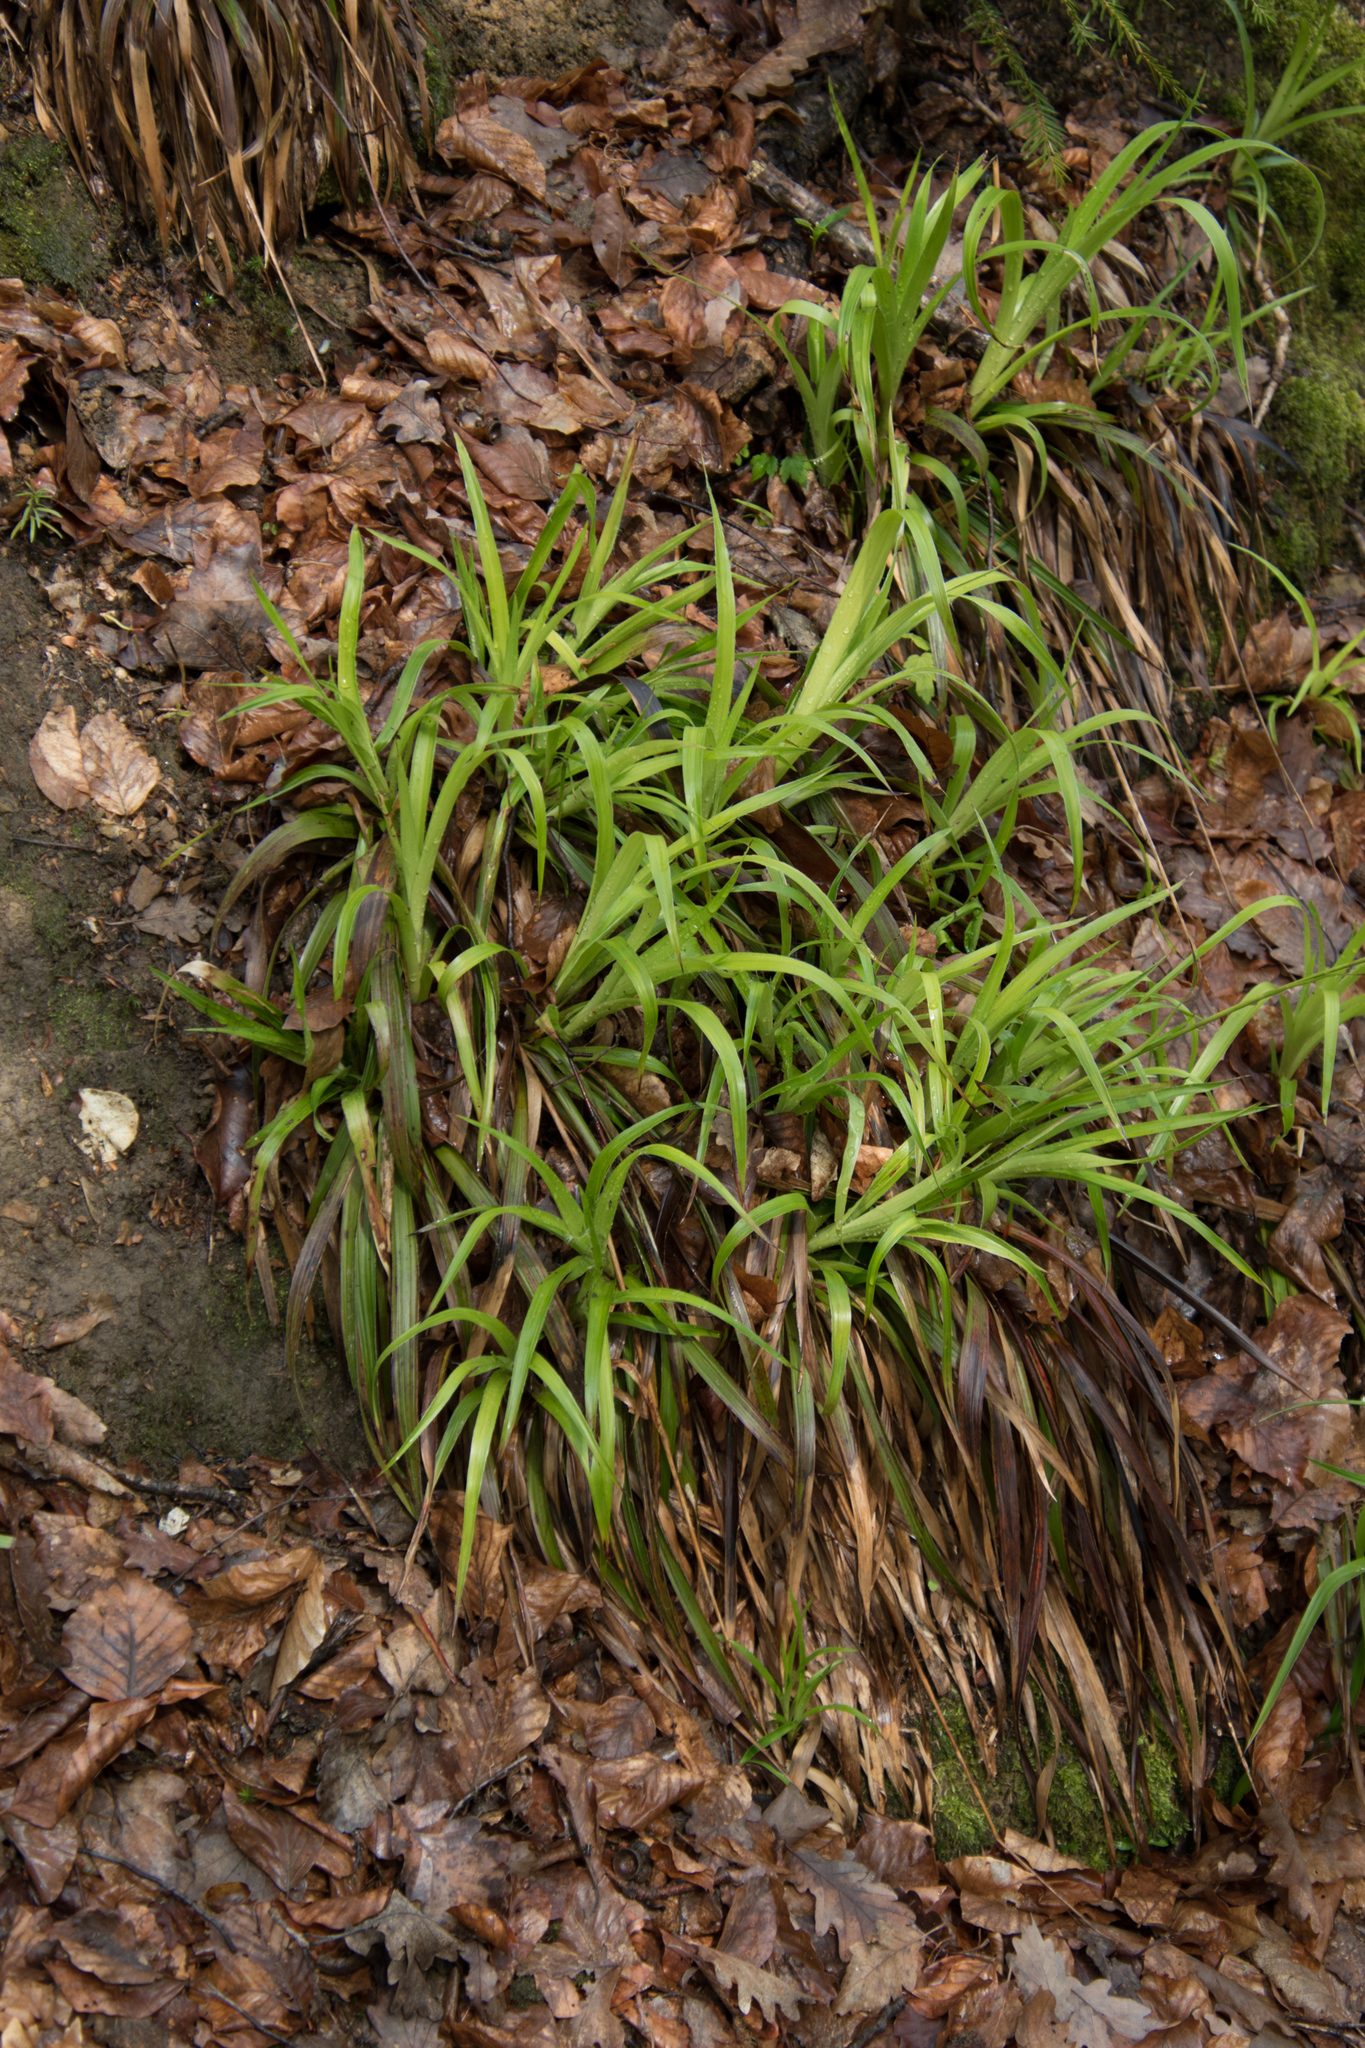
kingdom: Plantae
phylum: Tracheophyta
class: Liliopsida
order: Poales
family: Juncaceae
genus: Luzula
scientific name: Luzula sylvatica
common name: Great wood-rush
